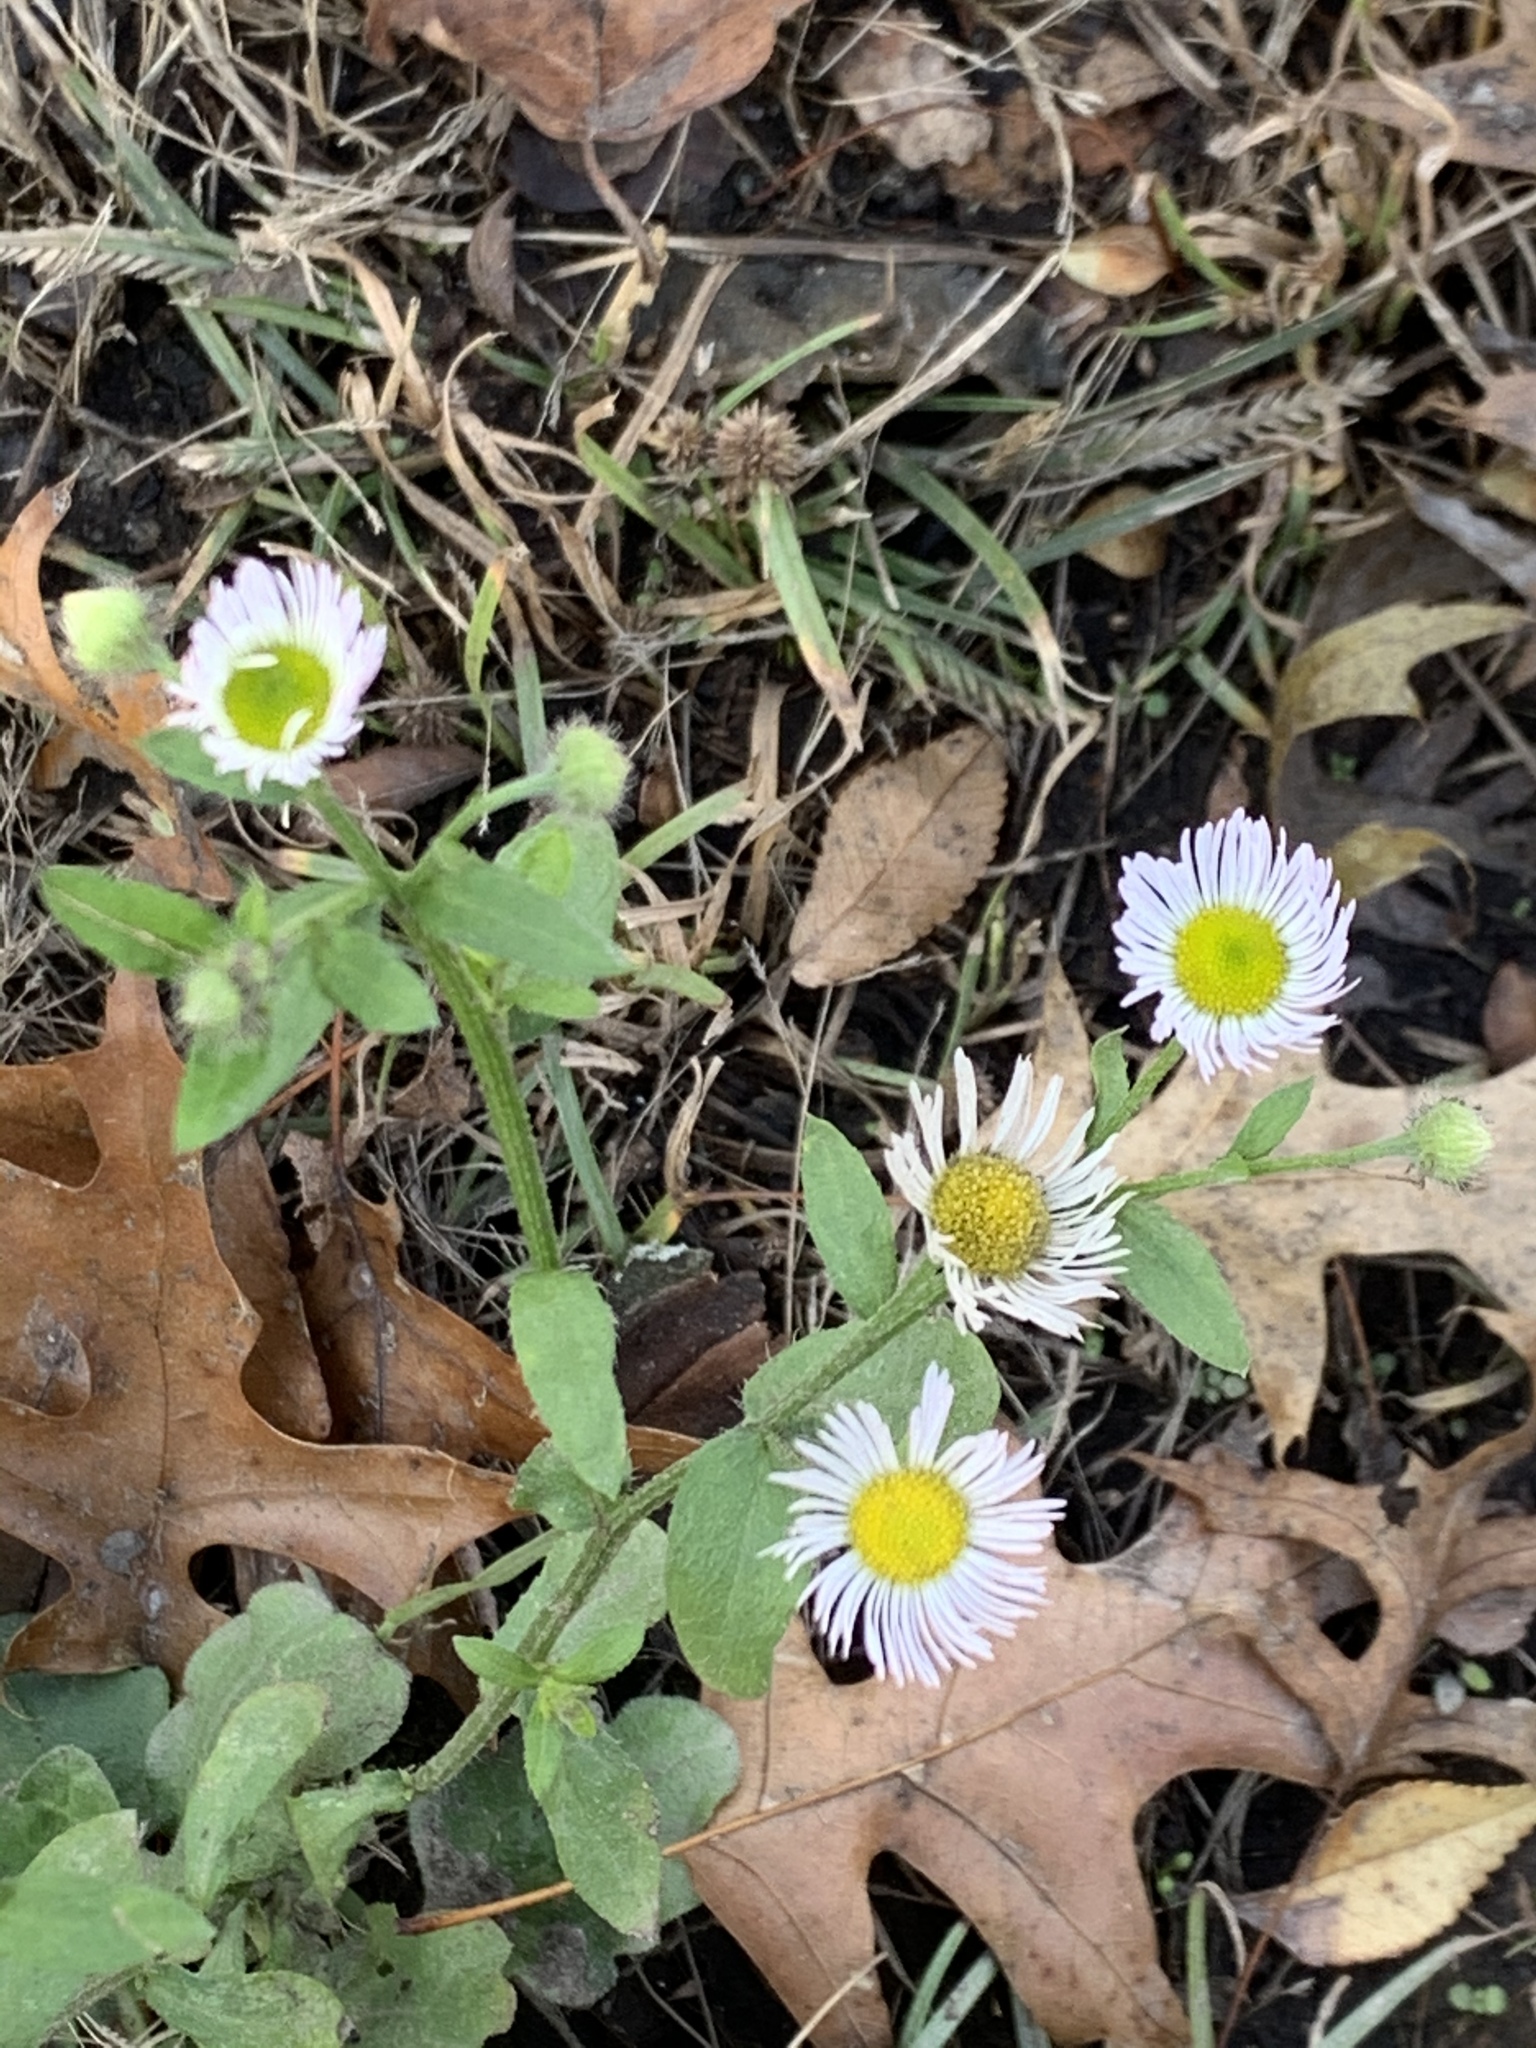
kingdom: Plantae
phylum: Tracheophyta
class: Magnoliopsida
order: Asterales
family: Asteraceae
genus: Erigeron
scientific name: Erigeron annuus
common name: Tall fleabane
